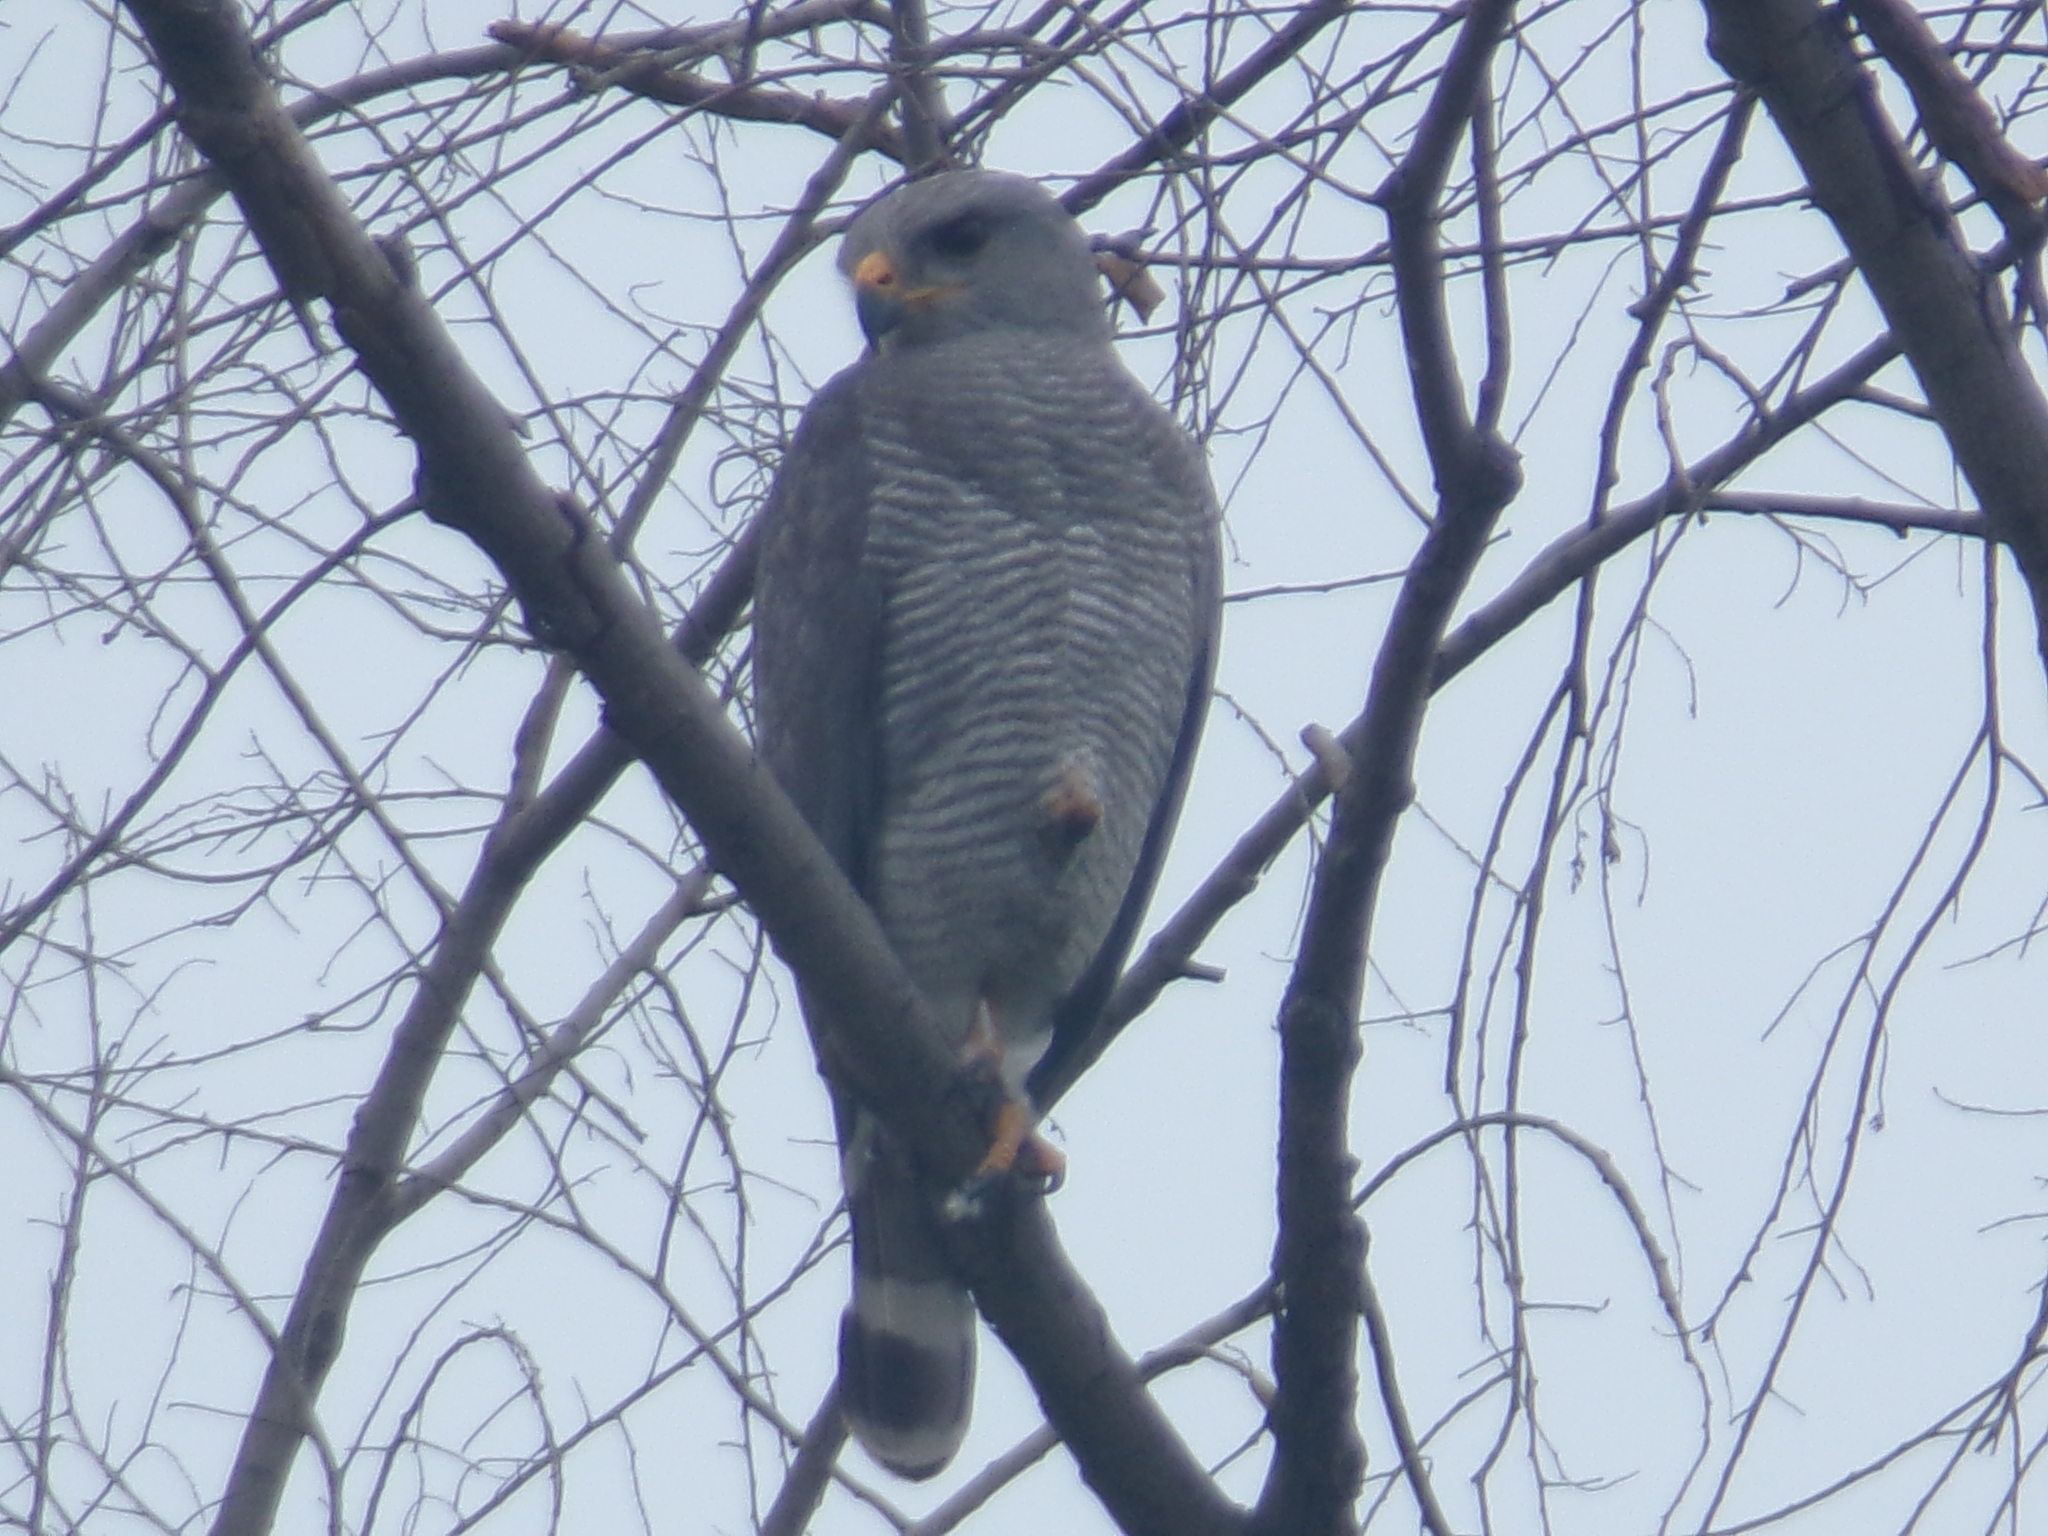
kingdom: Animalia
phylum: Chordata
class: Aves
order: Accipitriformes
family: Accipitridae
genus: Buteo
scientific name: Buteo nitidus
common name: Grey-lined hawk
